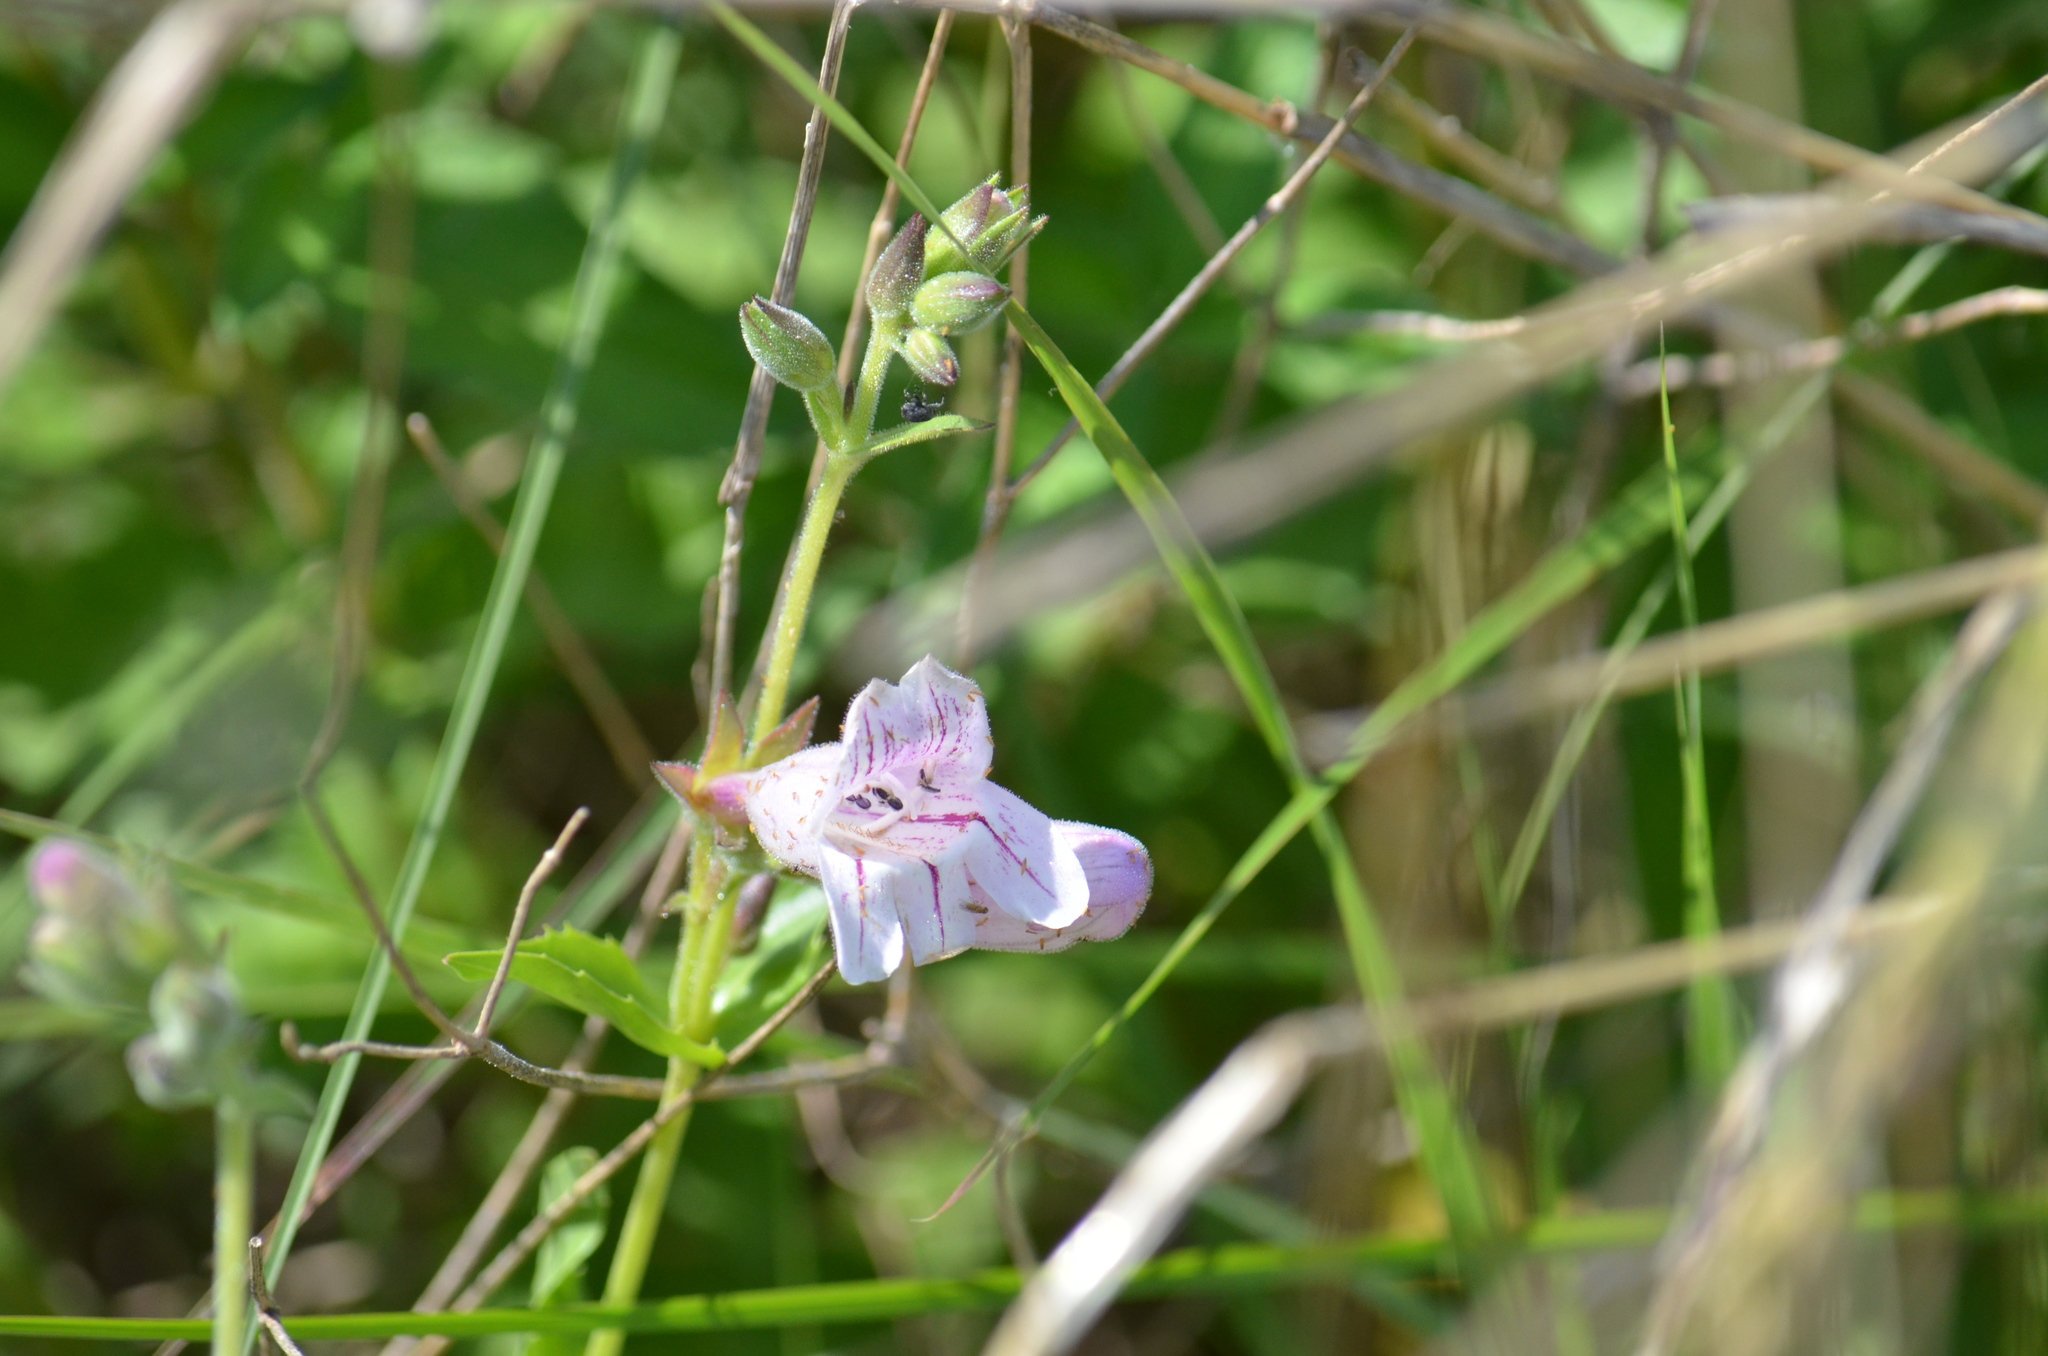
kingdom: Plantae
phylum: Tracheophyta
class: Magnoliopsida
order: Lamiales
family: Plantaginaceae
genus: Penstemon
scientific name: Penstemon cobaea
